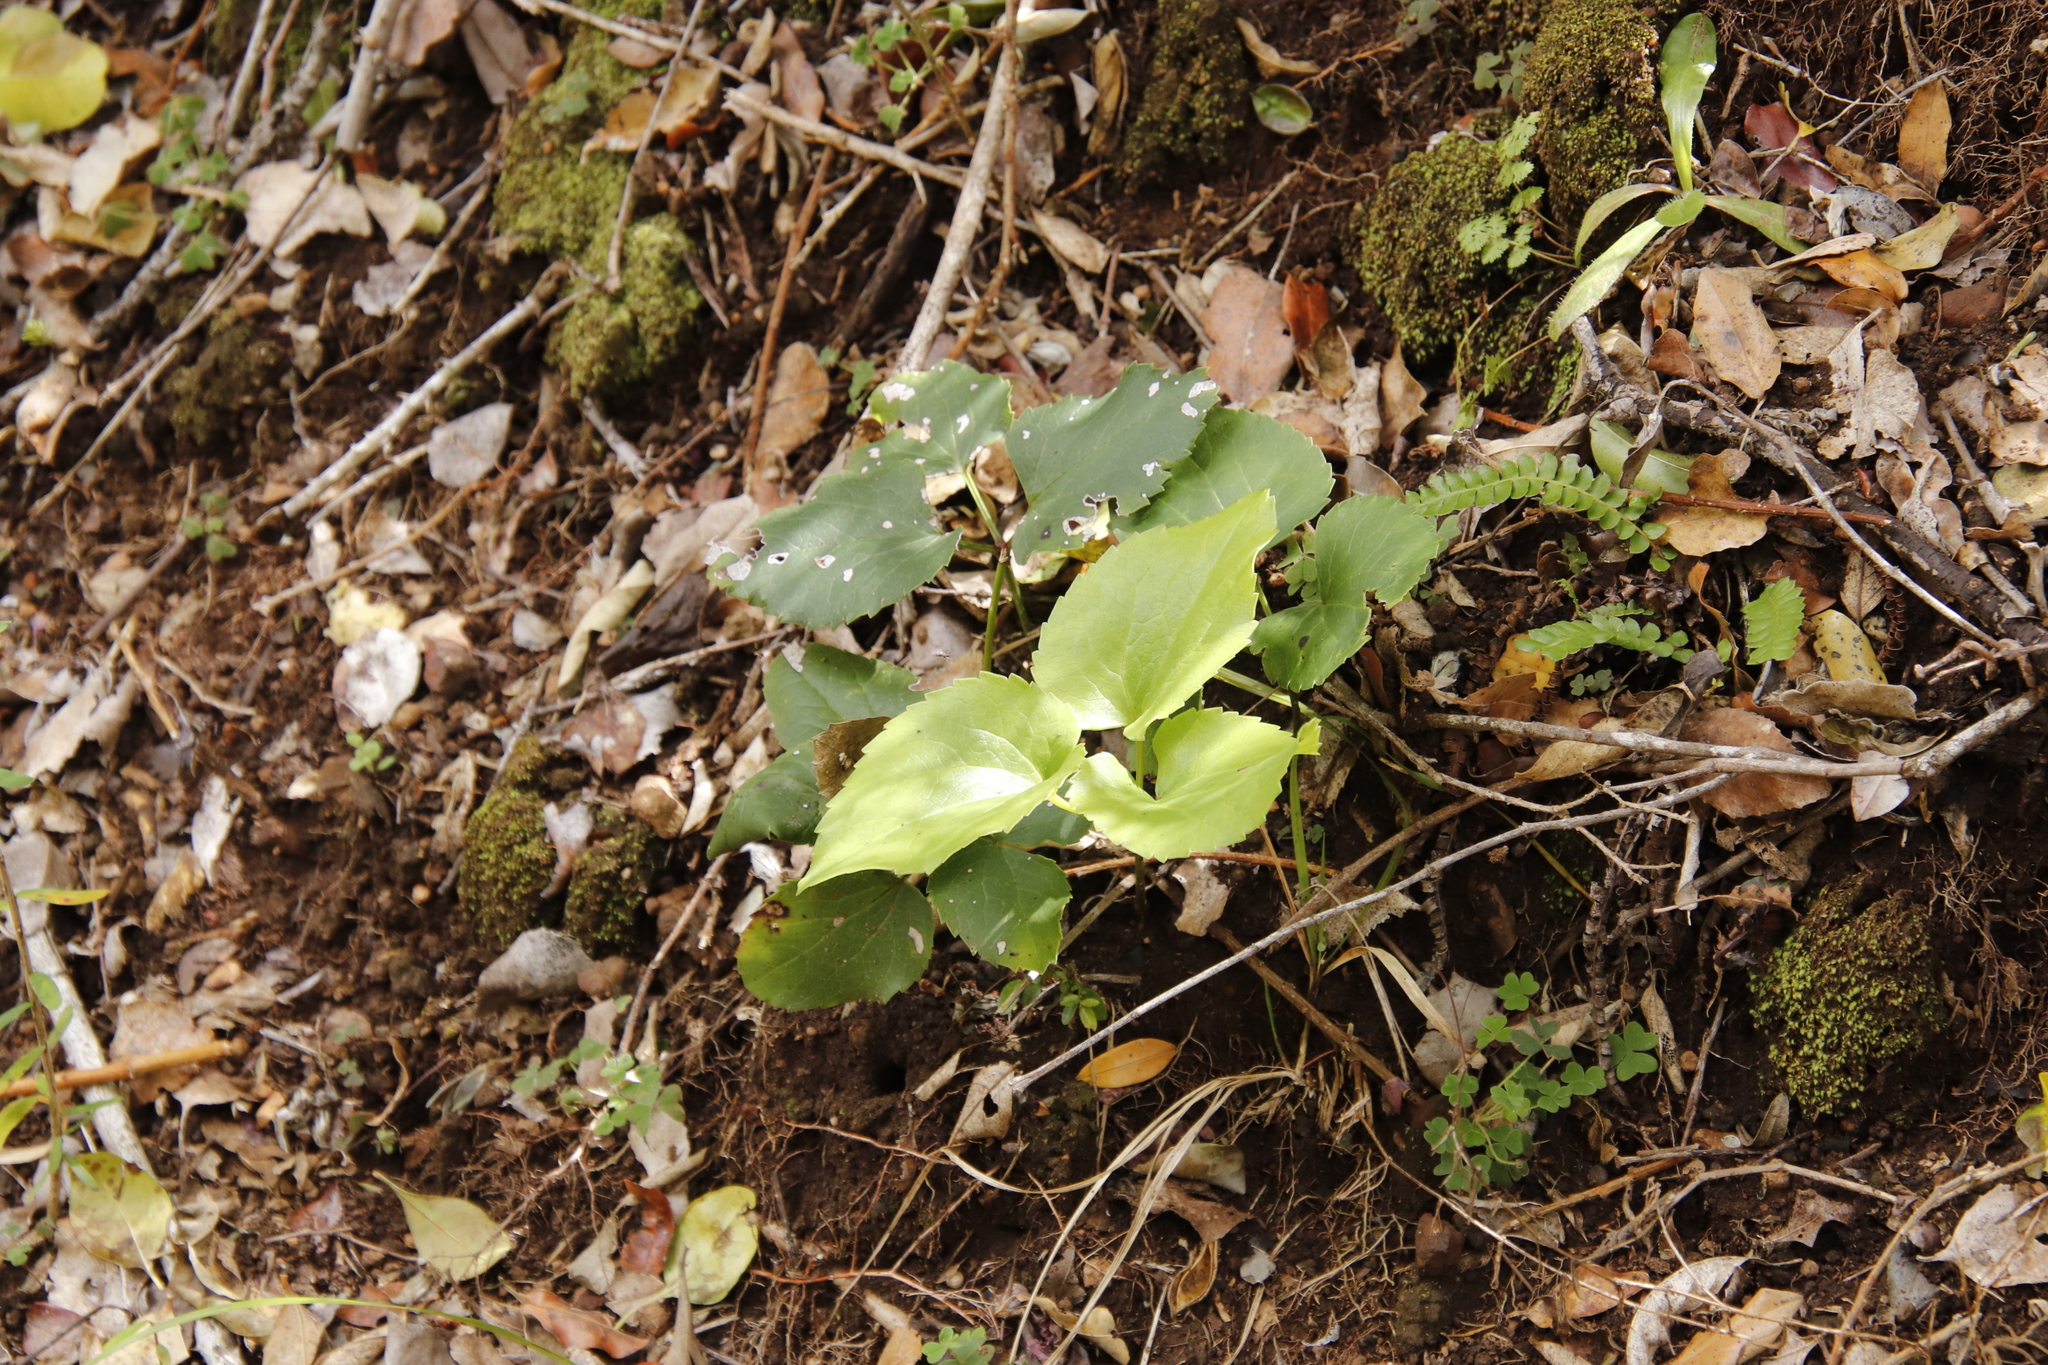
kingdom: Plantae
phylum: Tracheophyta
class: Magnoliopsida
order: Ranunculales
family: Ranunculaceae
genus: Knowltonia
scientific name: Knowltonia vesicatoria
